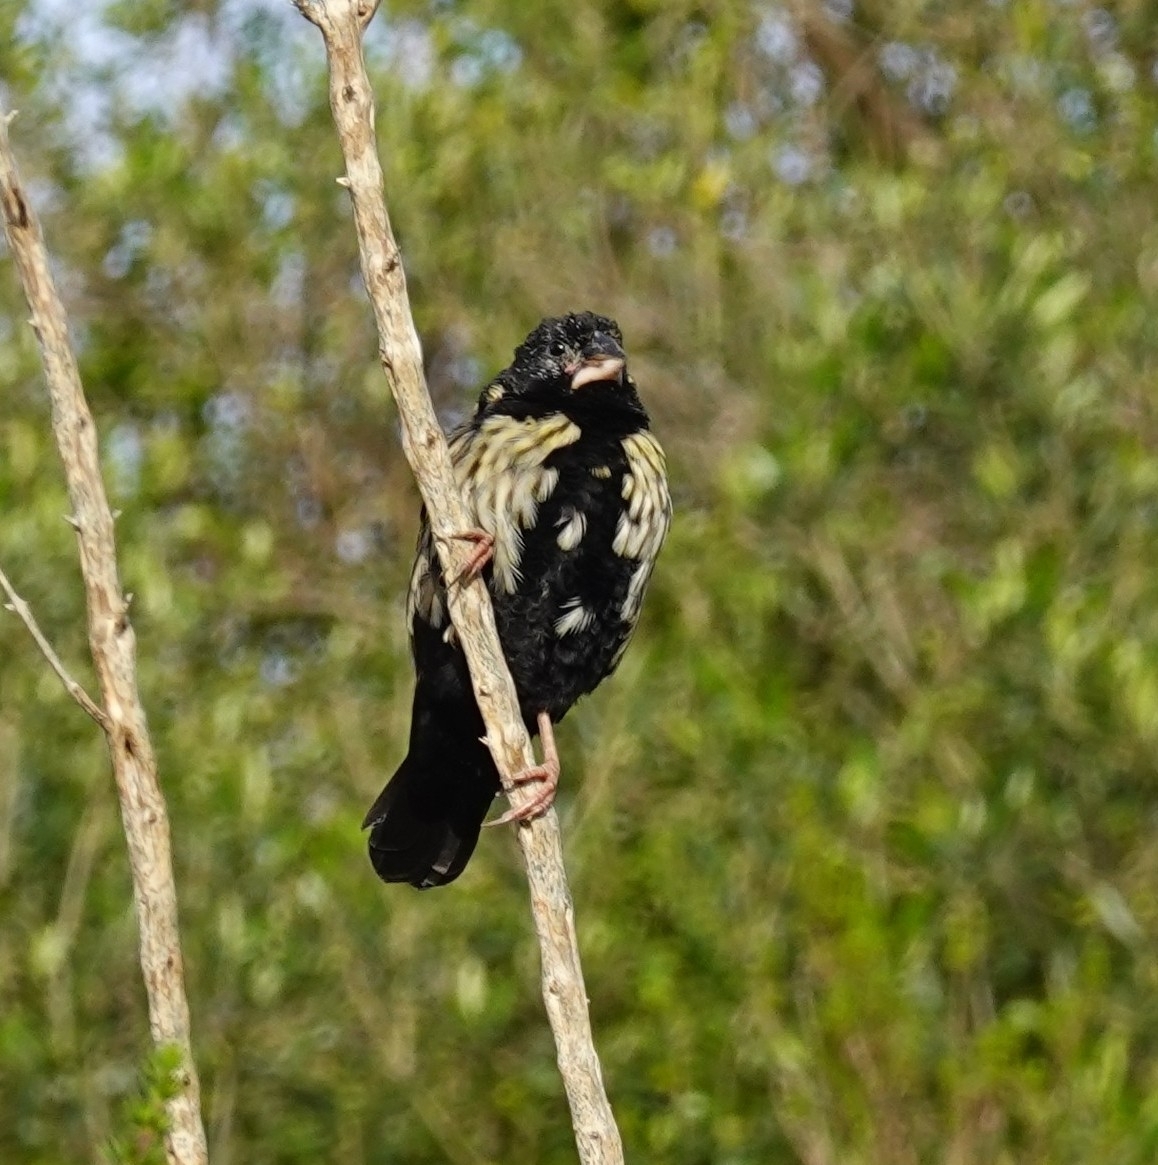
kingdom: Animalia
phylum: Chordata
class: Aves
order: Passeriformes
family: Ploceidae
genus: Euplectes
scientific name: Euplectes capensis
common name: Yellow bishop
